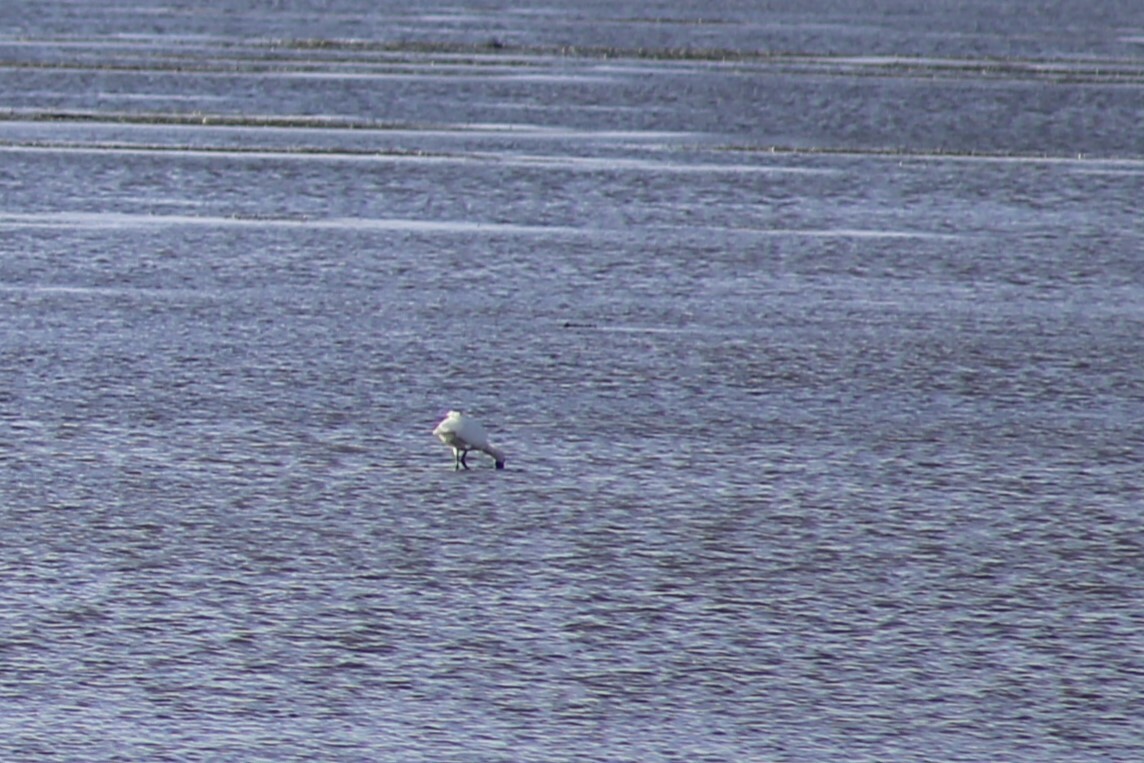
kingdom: Animalia
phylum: Chordata
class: Aves
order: Pelecaniformes
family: Threskiornithidae
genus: Platalea
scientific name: Platalea regia
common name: Royal spoonbill
